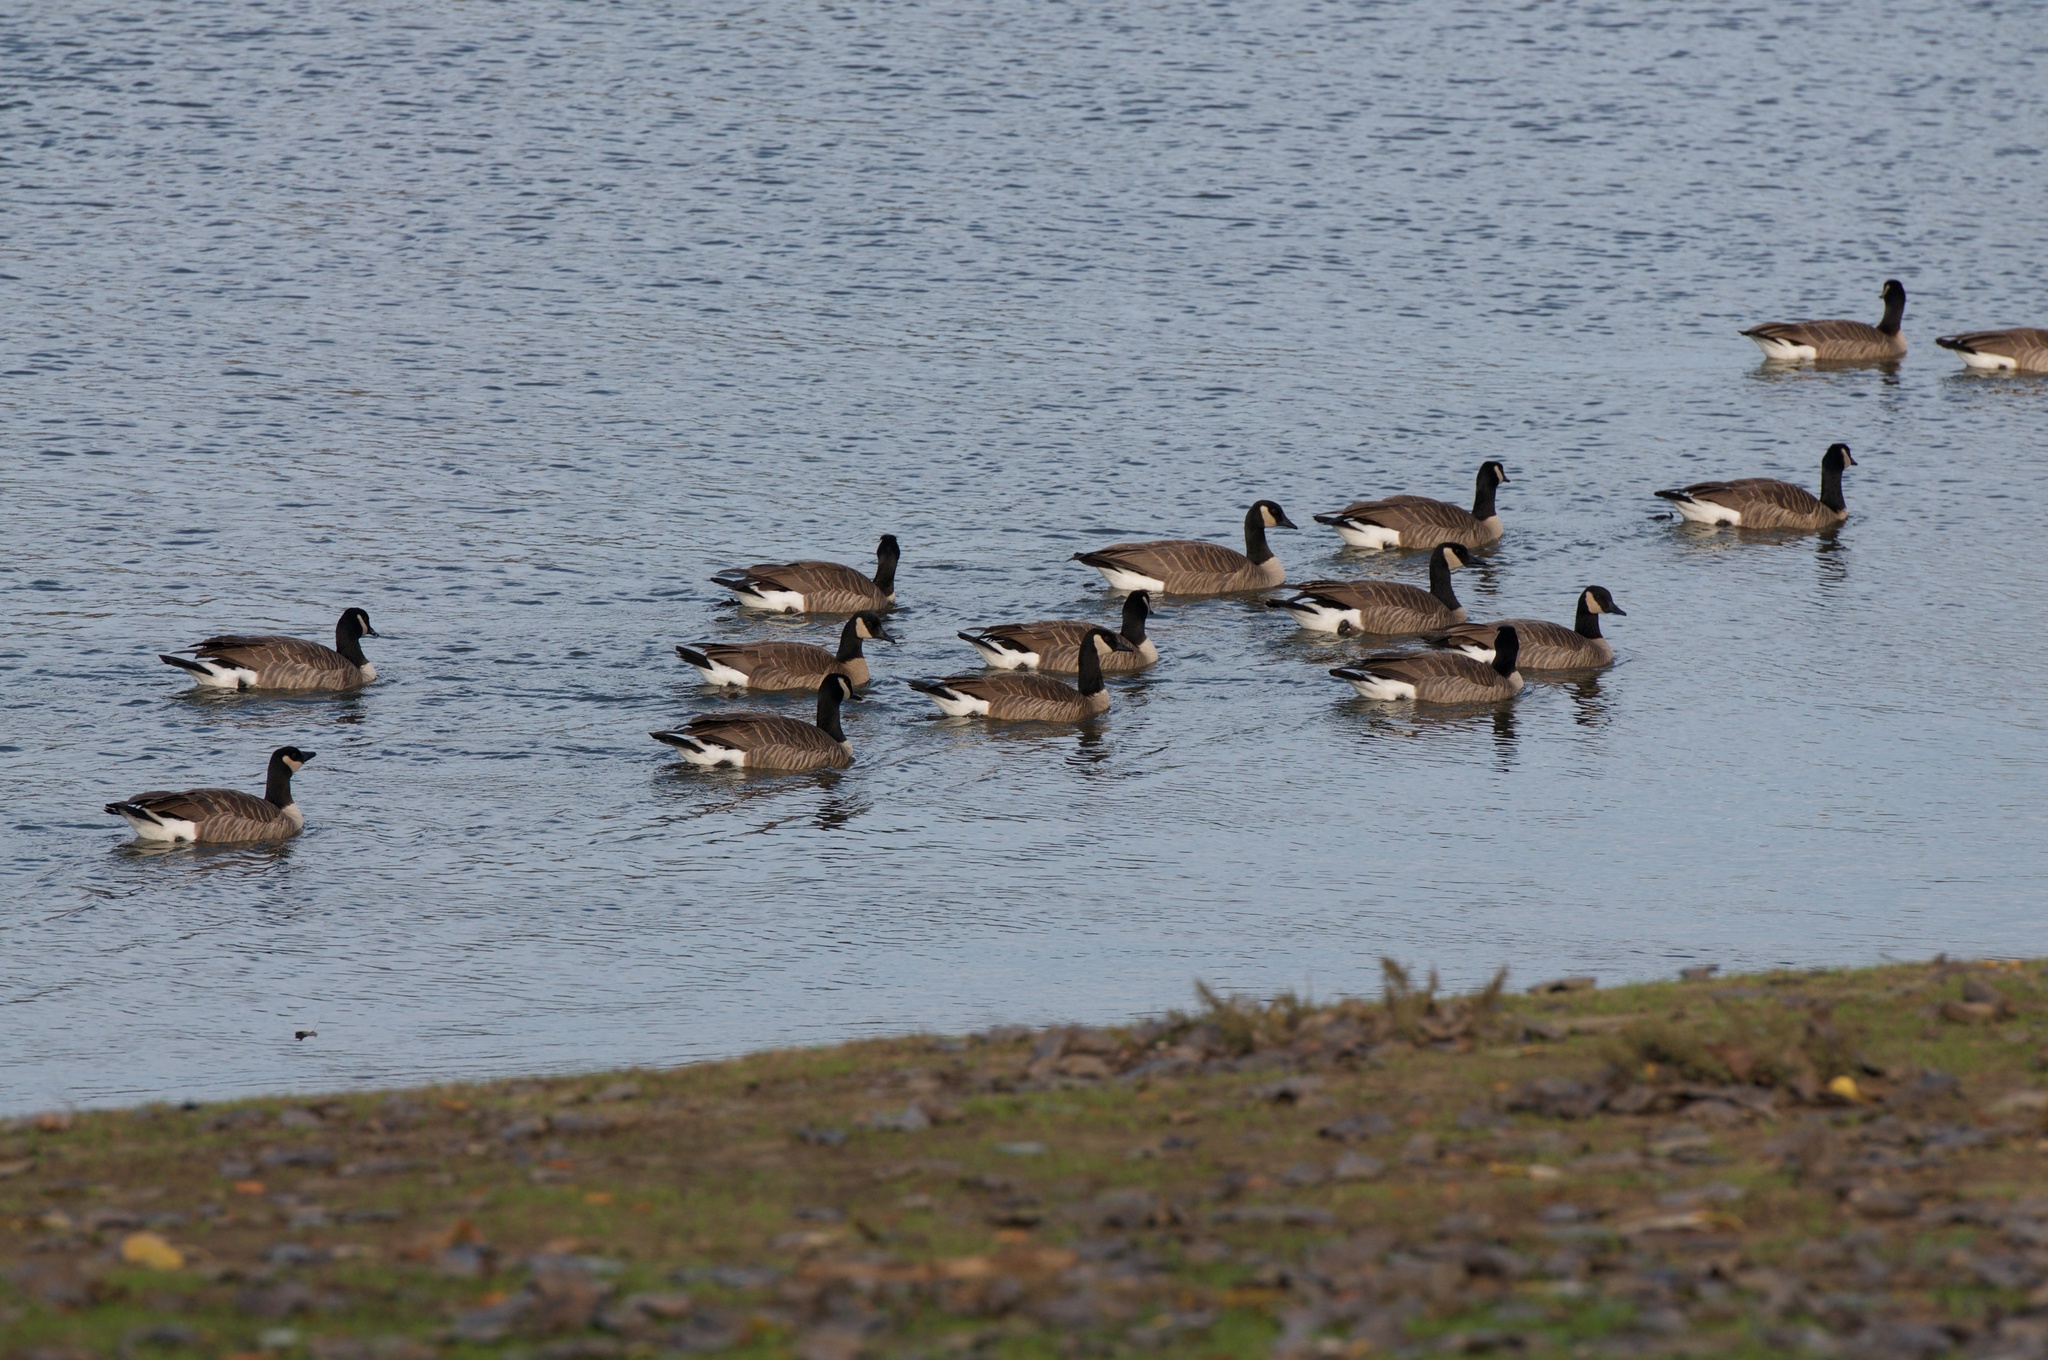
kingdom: Animalia
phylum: Chordata
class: Aves
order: Anseriformes
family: Anatidae
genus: Branta
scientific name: Branta canadensis
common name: Canada goose
